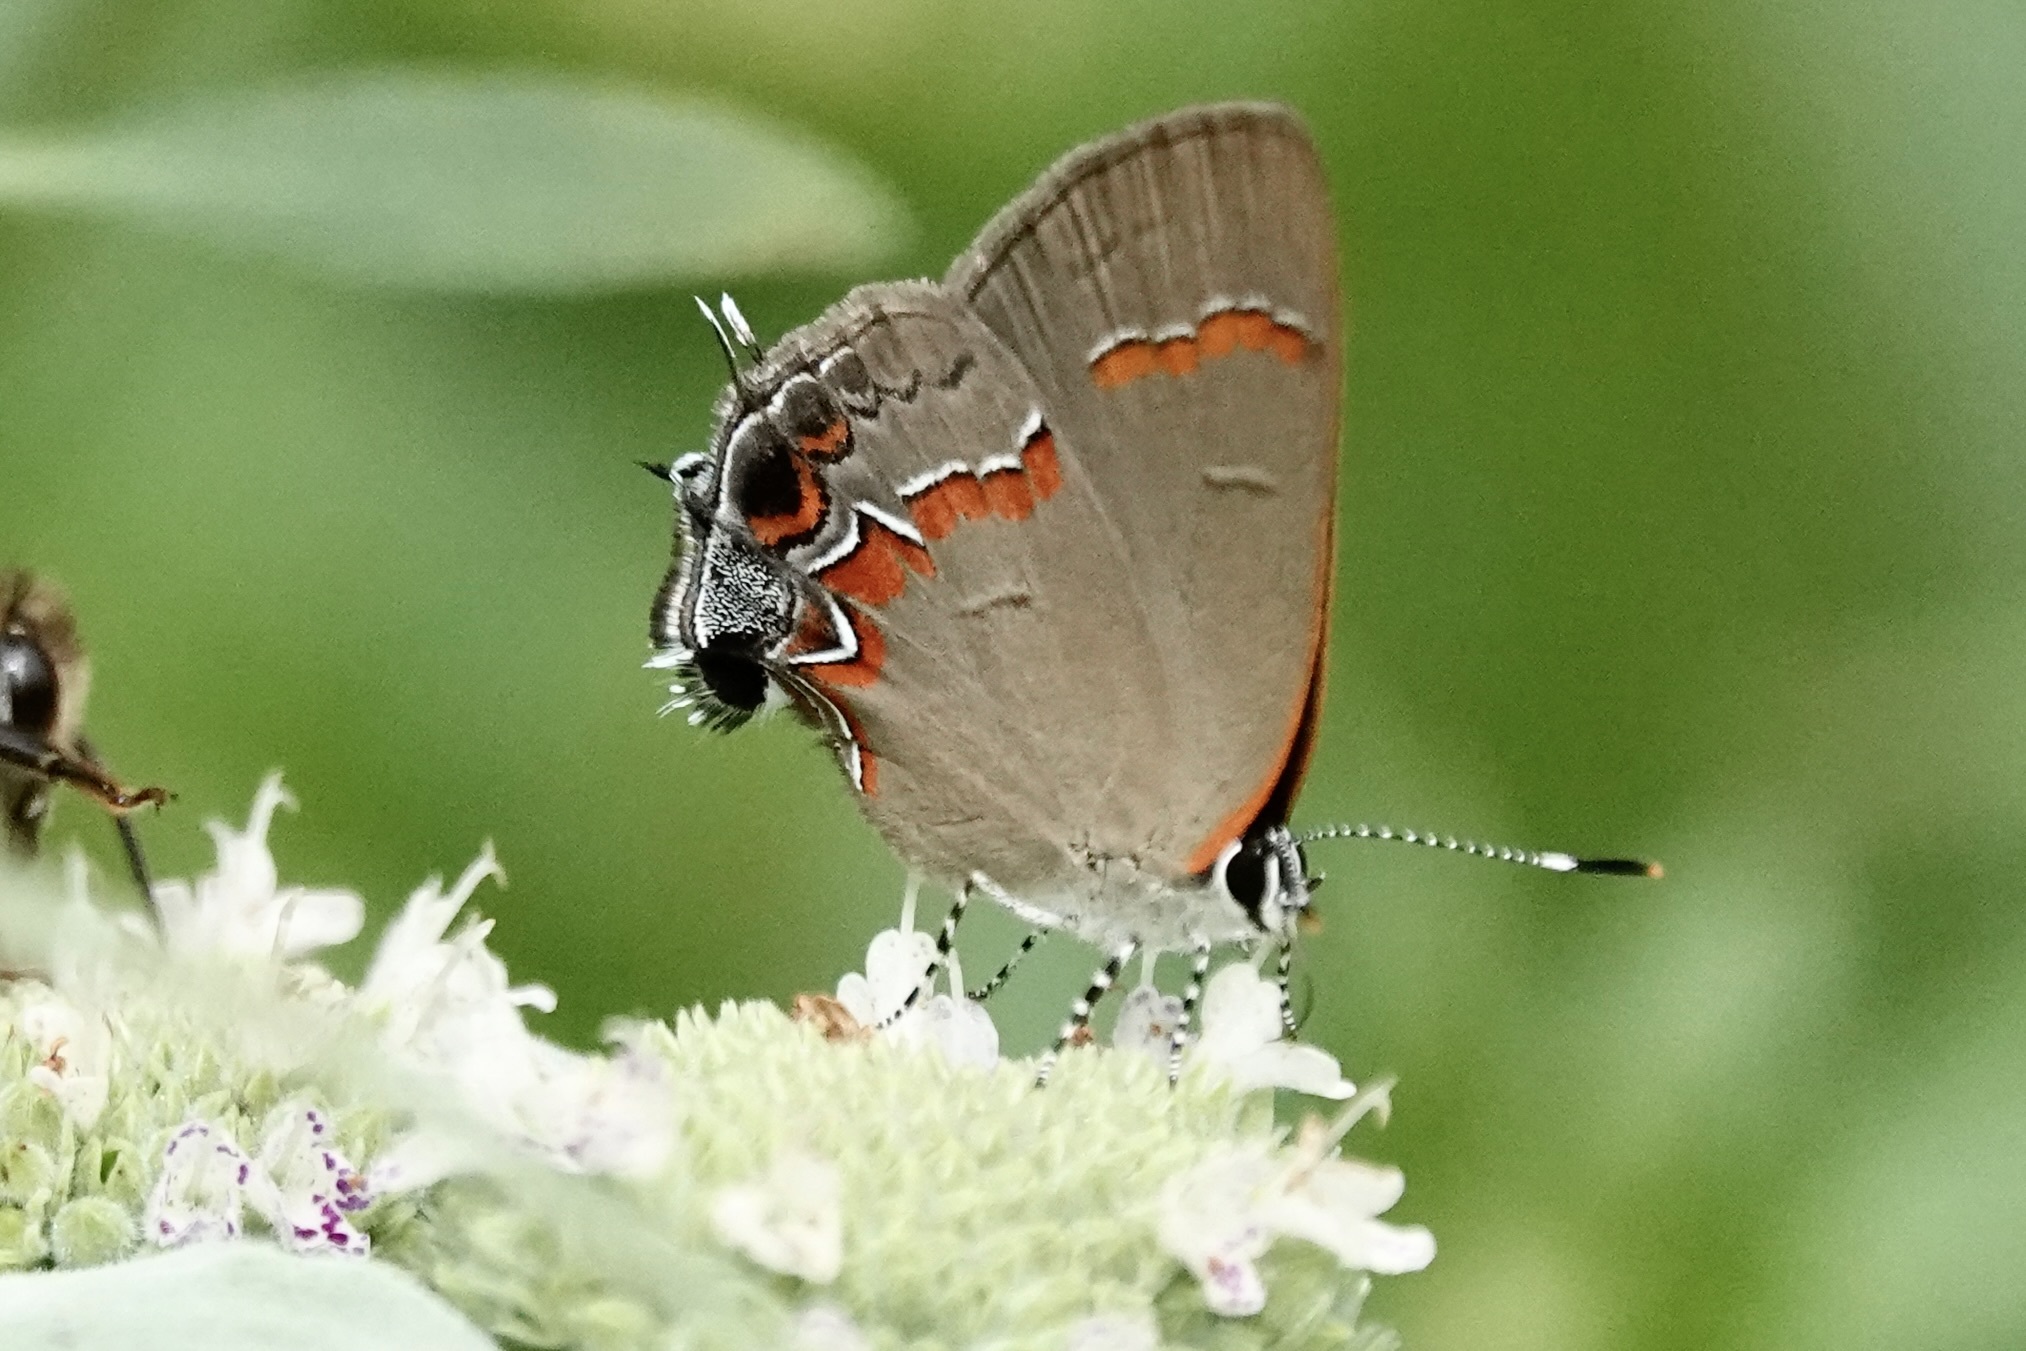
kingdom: Animalia
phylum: Arthropoda
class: Insecta
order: Lepidoptera
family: Lycaenidae
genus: Calycopis
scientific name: Calycopis cecrops
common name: Red-banded hairstreak
